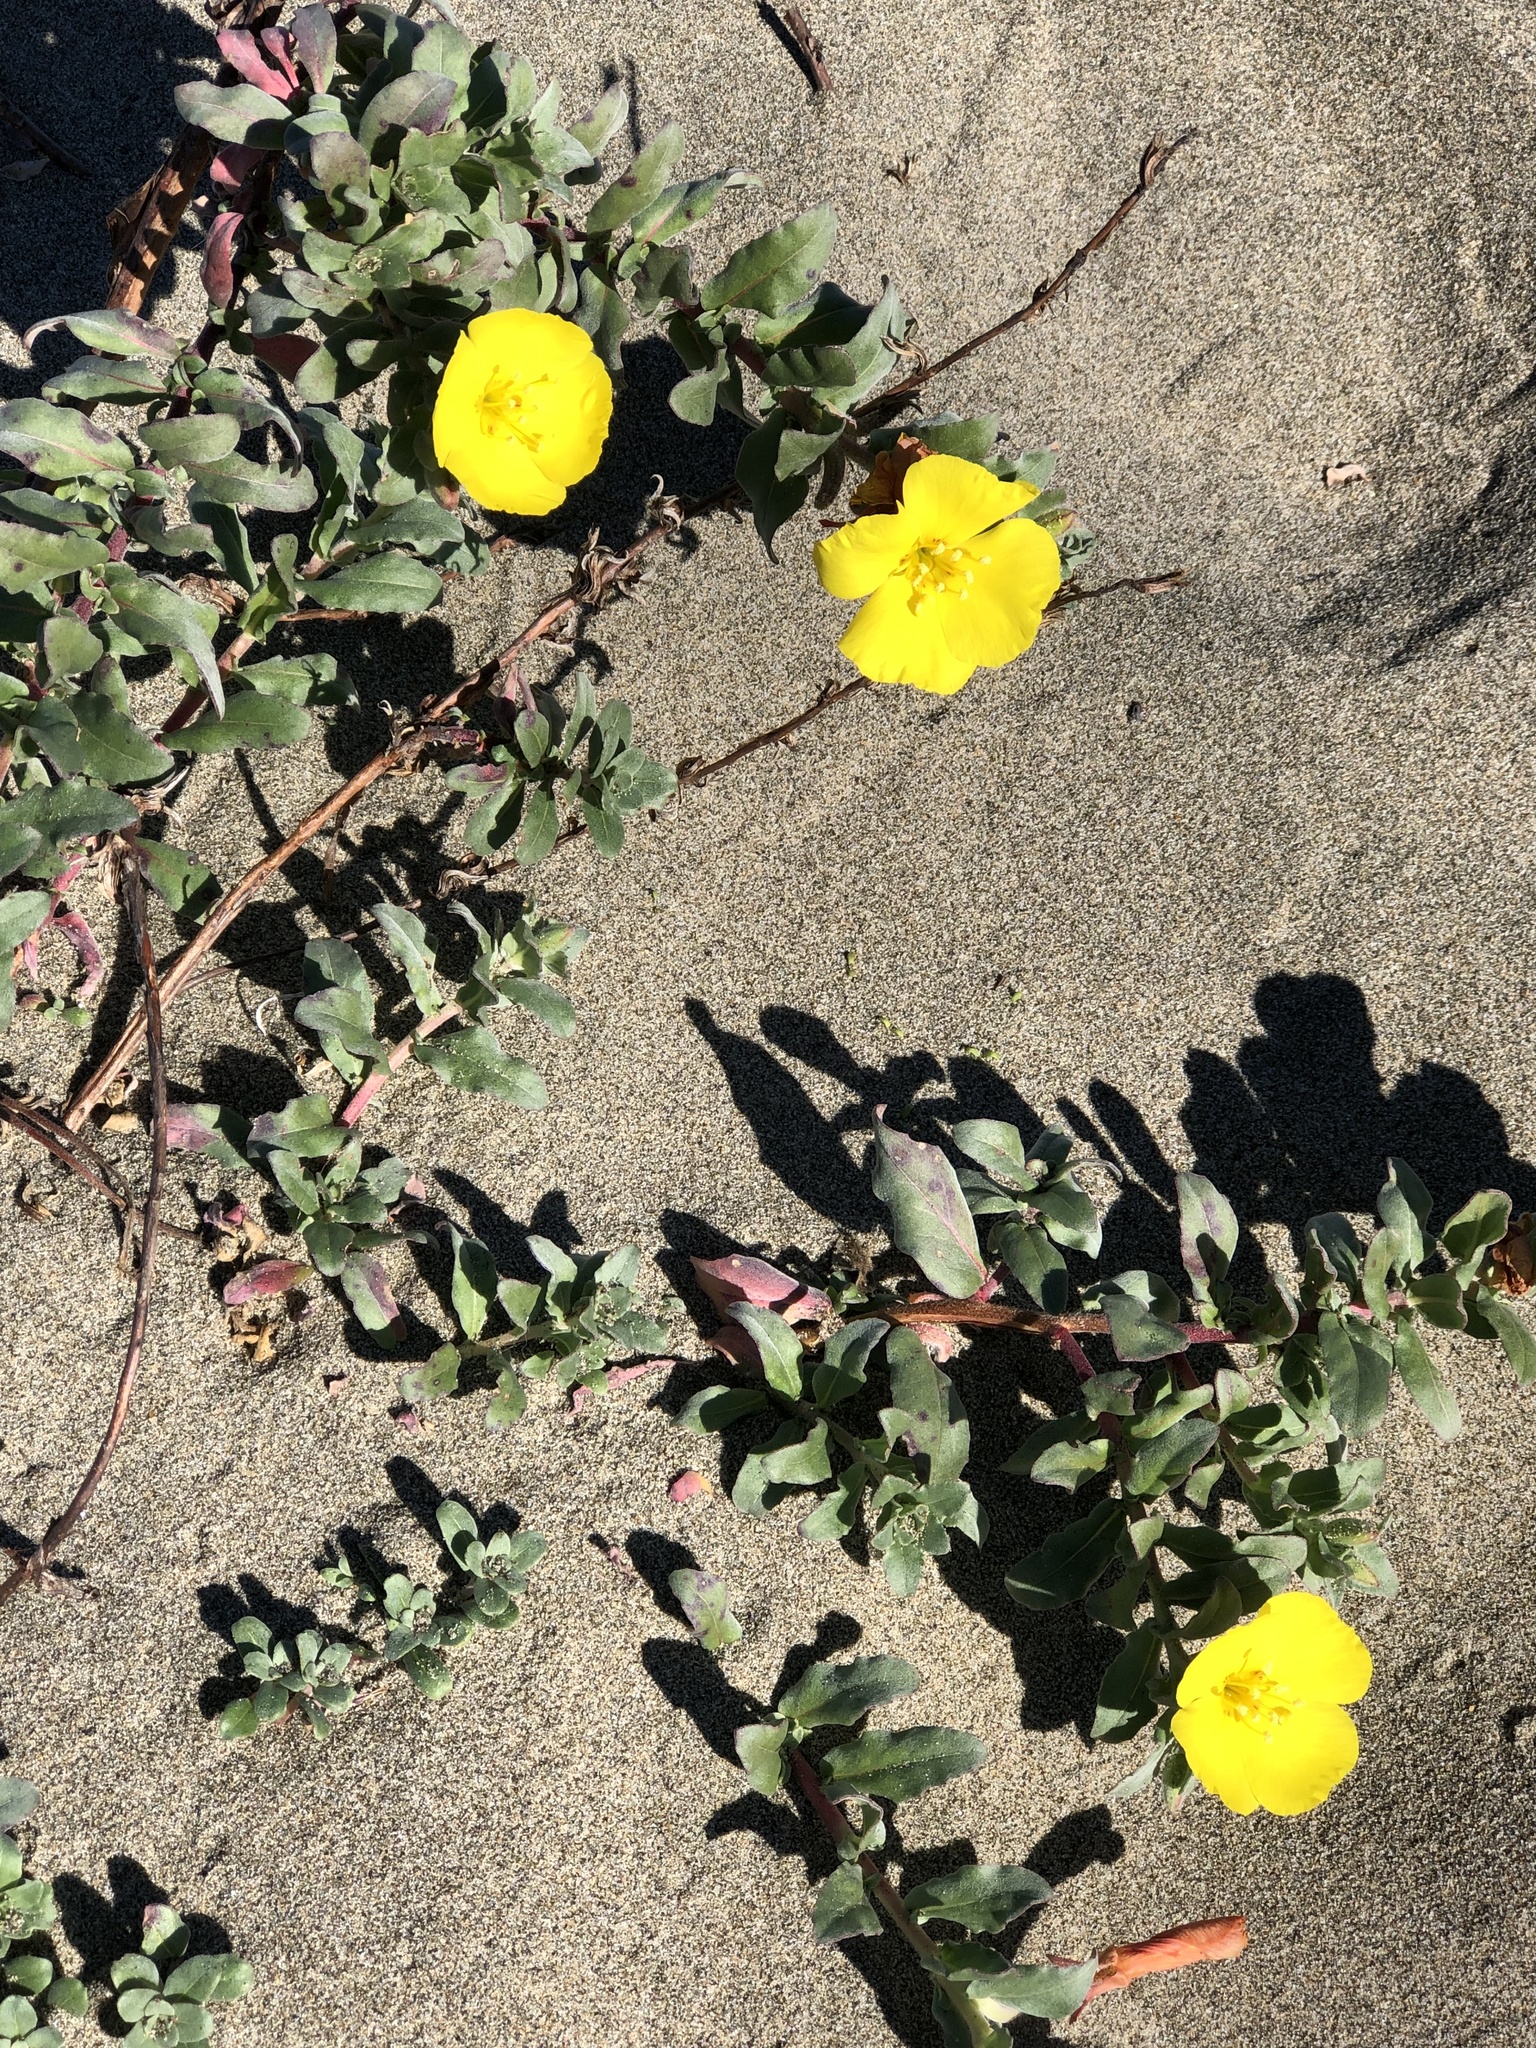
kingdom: Plantae
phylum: Tracheophyta
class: Magnoliopsida
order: Myrtales
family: Onagraceae
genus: Camissoniopsis
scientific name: Camissoniopsis cheiranthifolia
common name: Beach suncup
